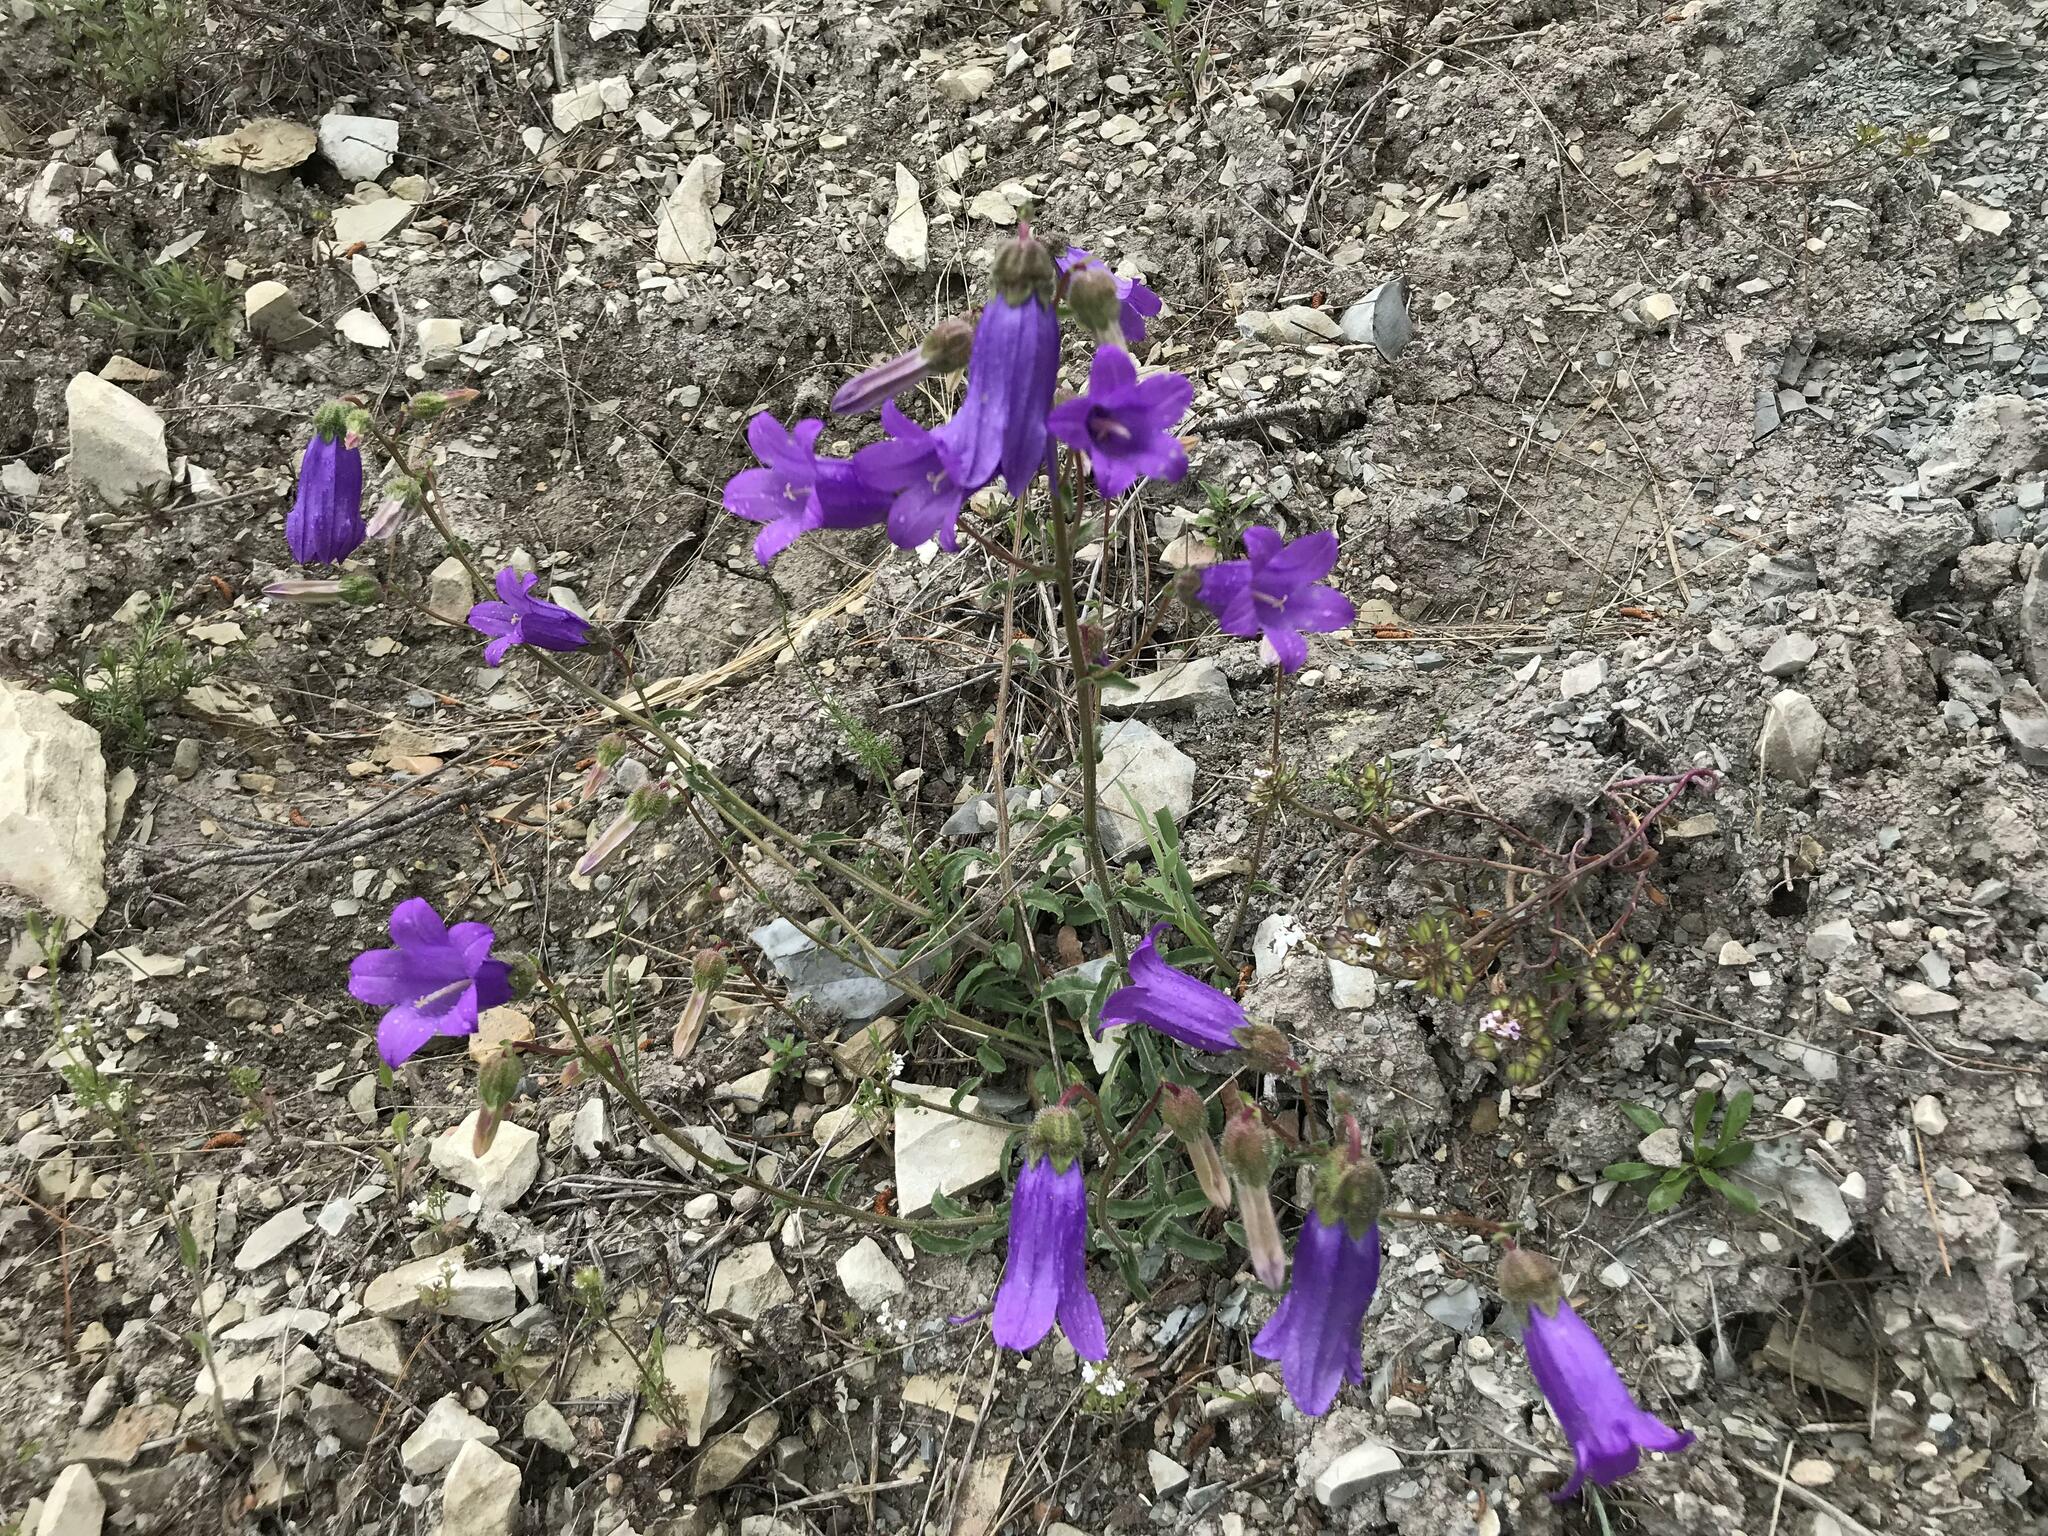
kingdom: Plantae
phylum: Tracheophyta
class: Magnoliopsida
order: Asterales
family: Campanulaceae
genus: Campanula
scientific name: Campanula komarovii
